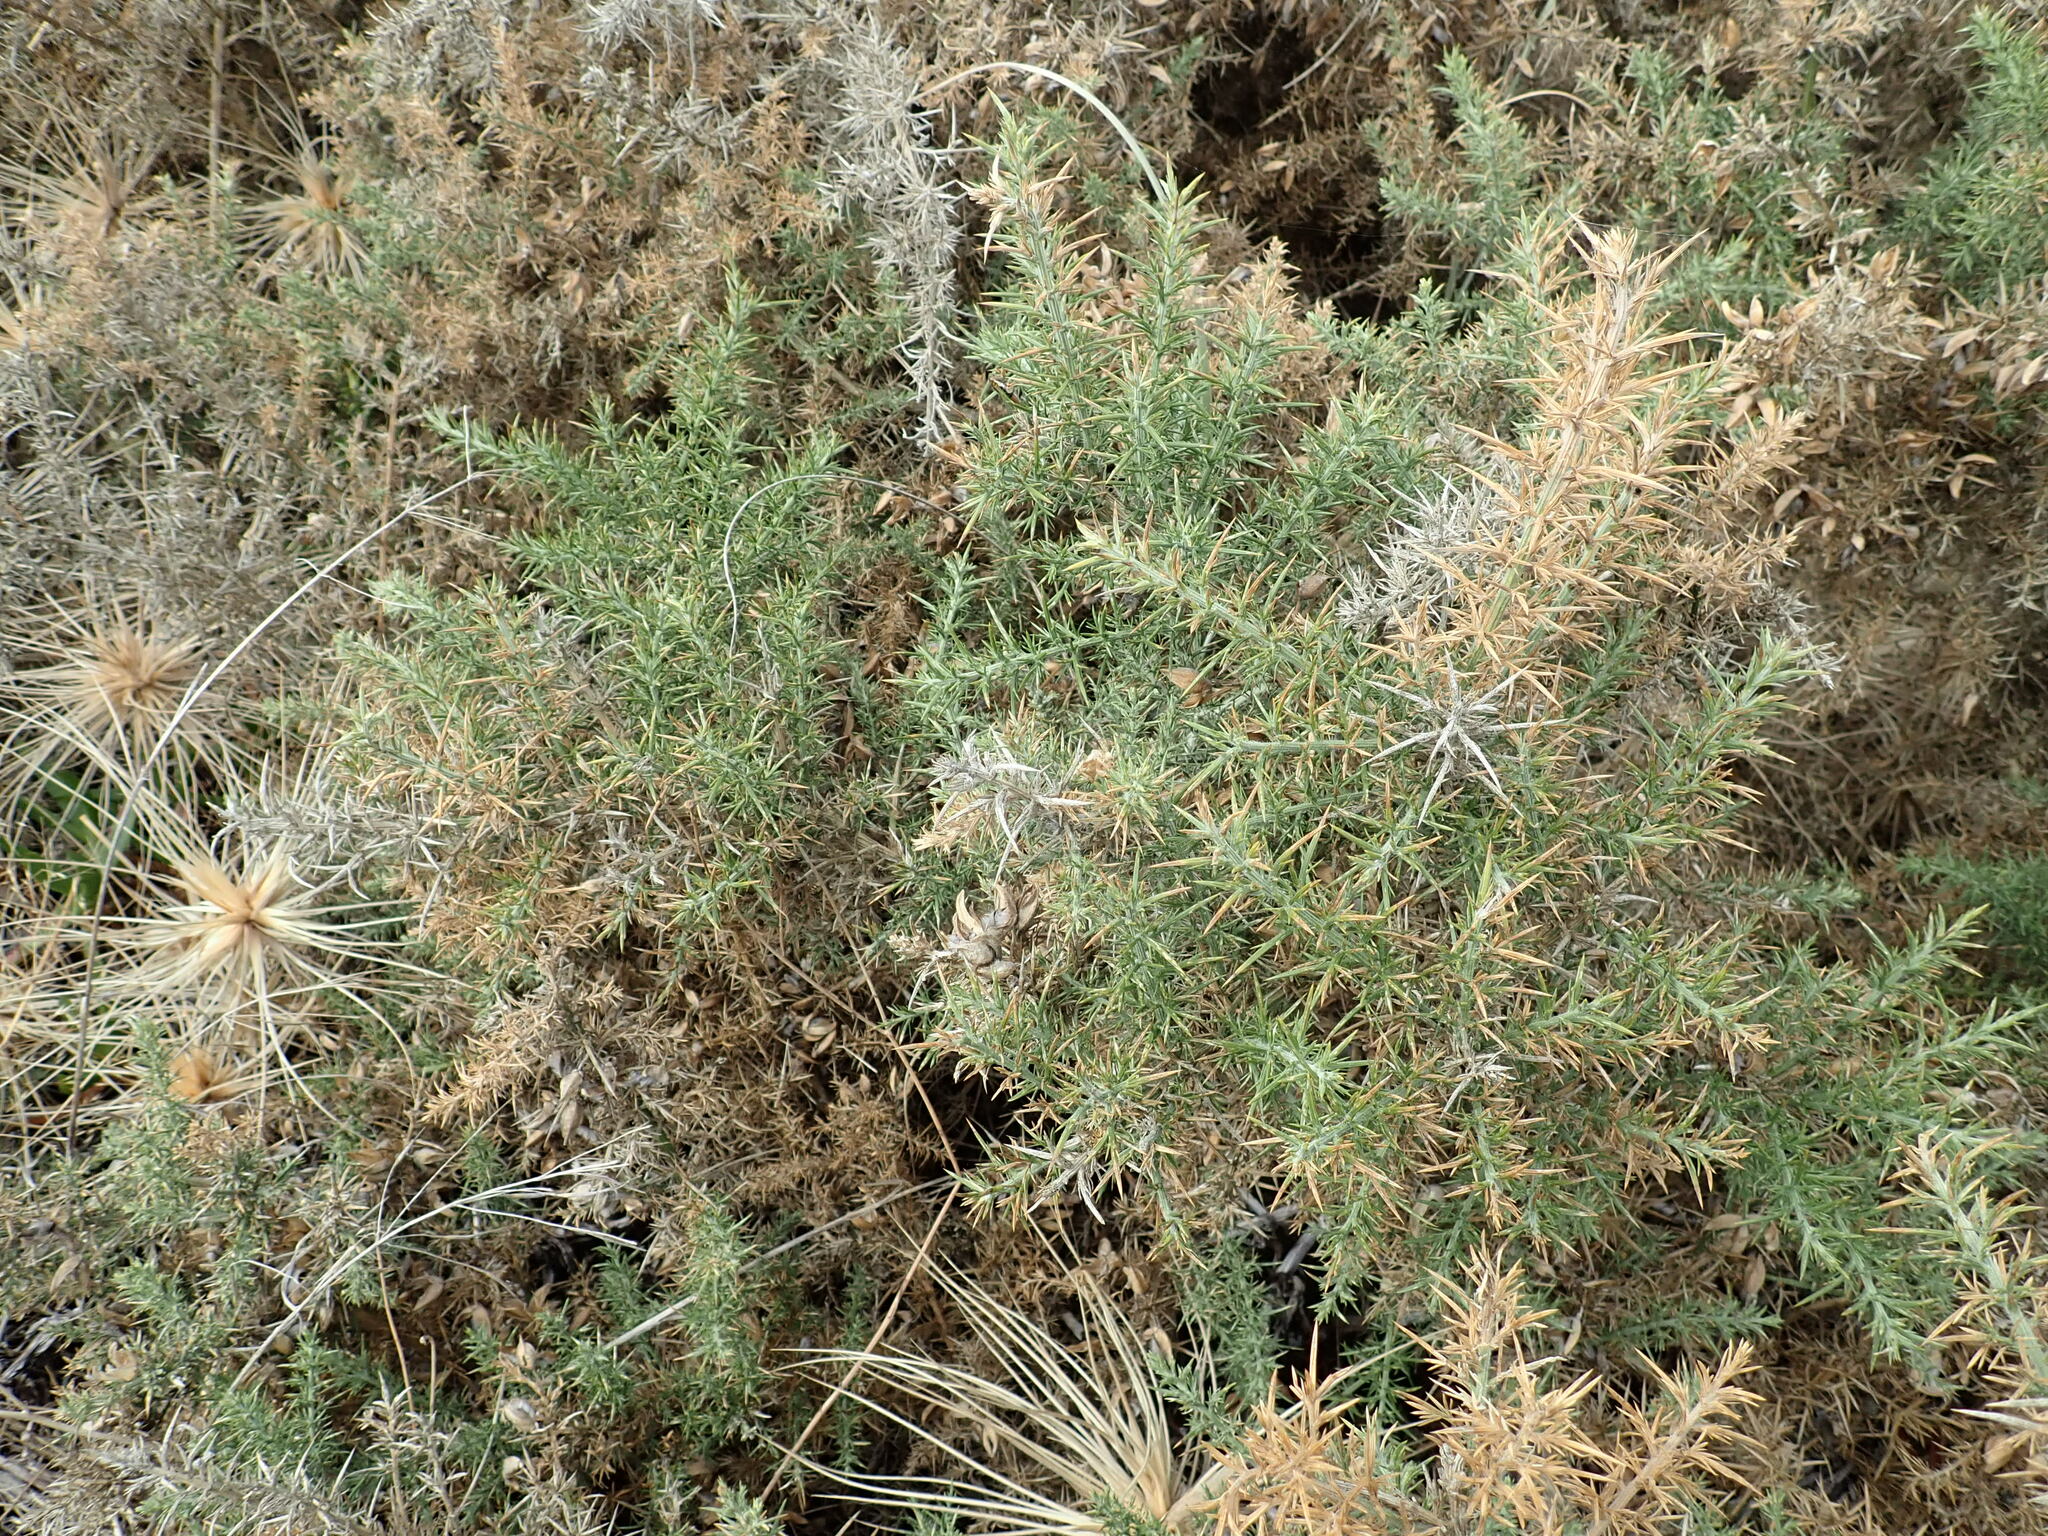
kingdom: Plantae
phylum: Tracheophyta
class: Magnoliopsida
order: Fabales
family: Fabaceae
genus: Ulex
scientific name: Ulex europaeus
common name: Common gorse
